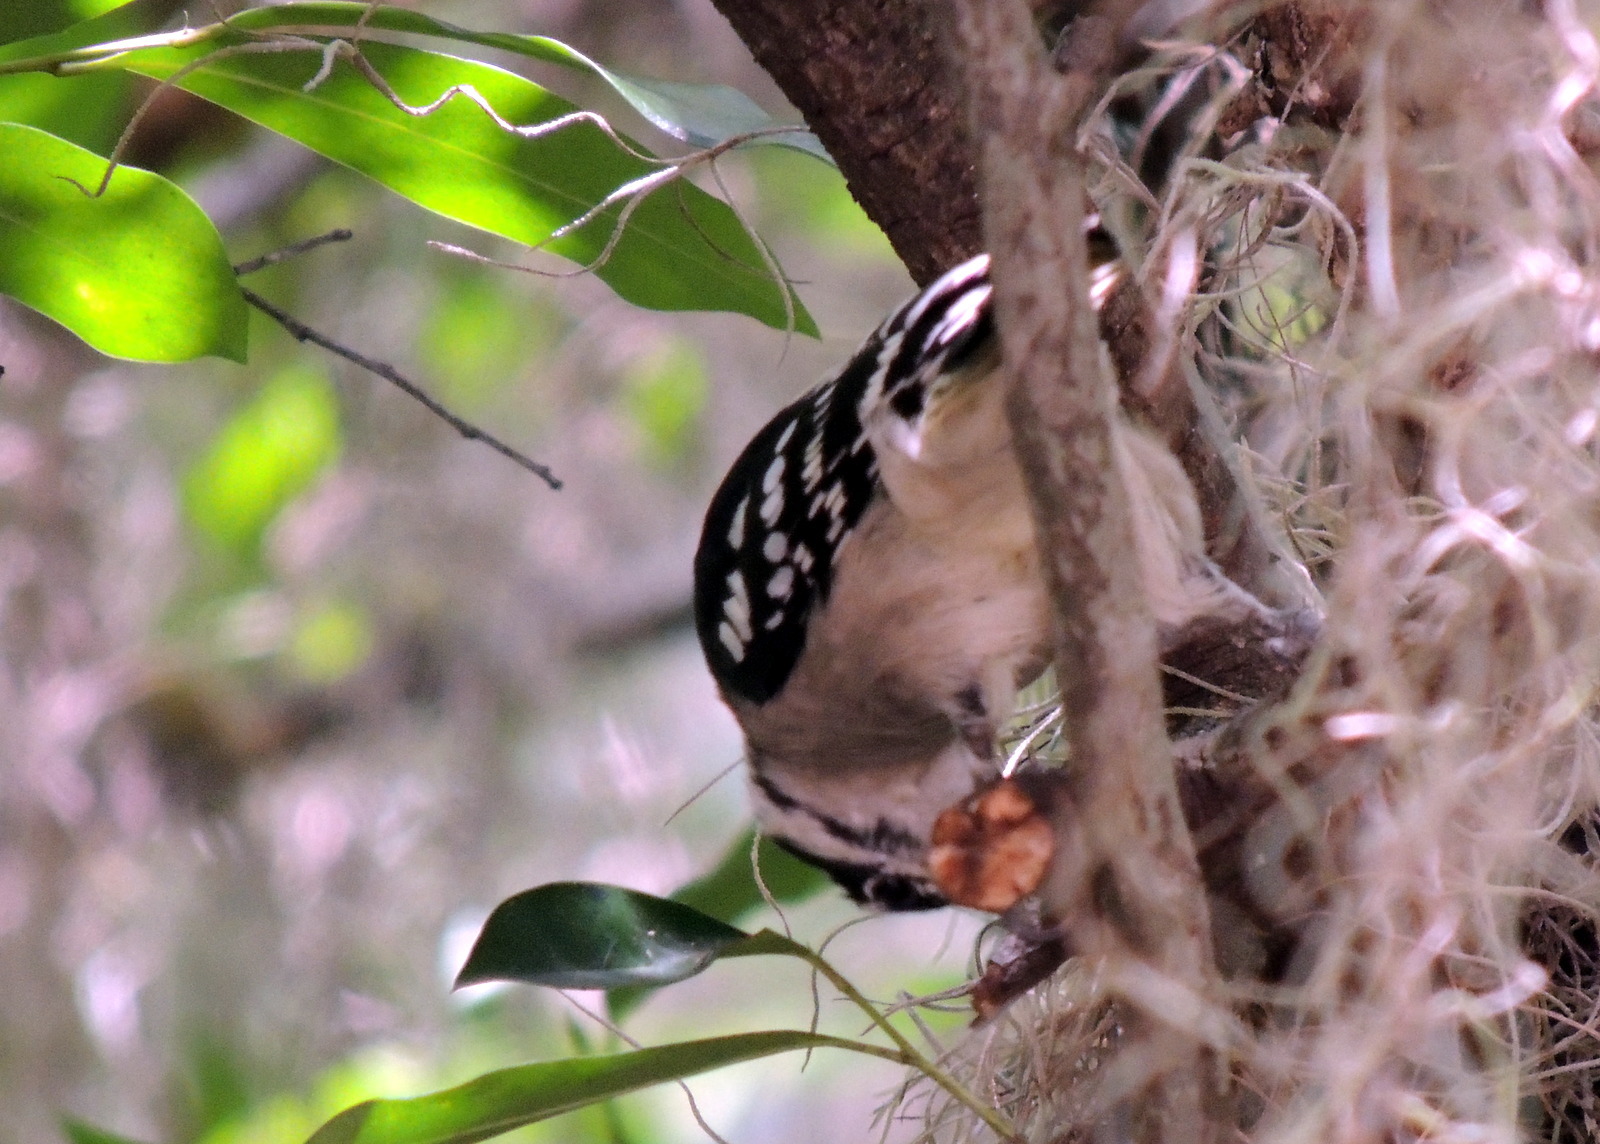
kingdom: Animalia
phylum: Chordata
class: Aves
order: Piciformes
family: Picidae
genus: Dryobates
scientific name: Dryobates pubescens
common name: Downy woodpecker
